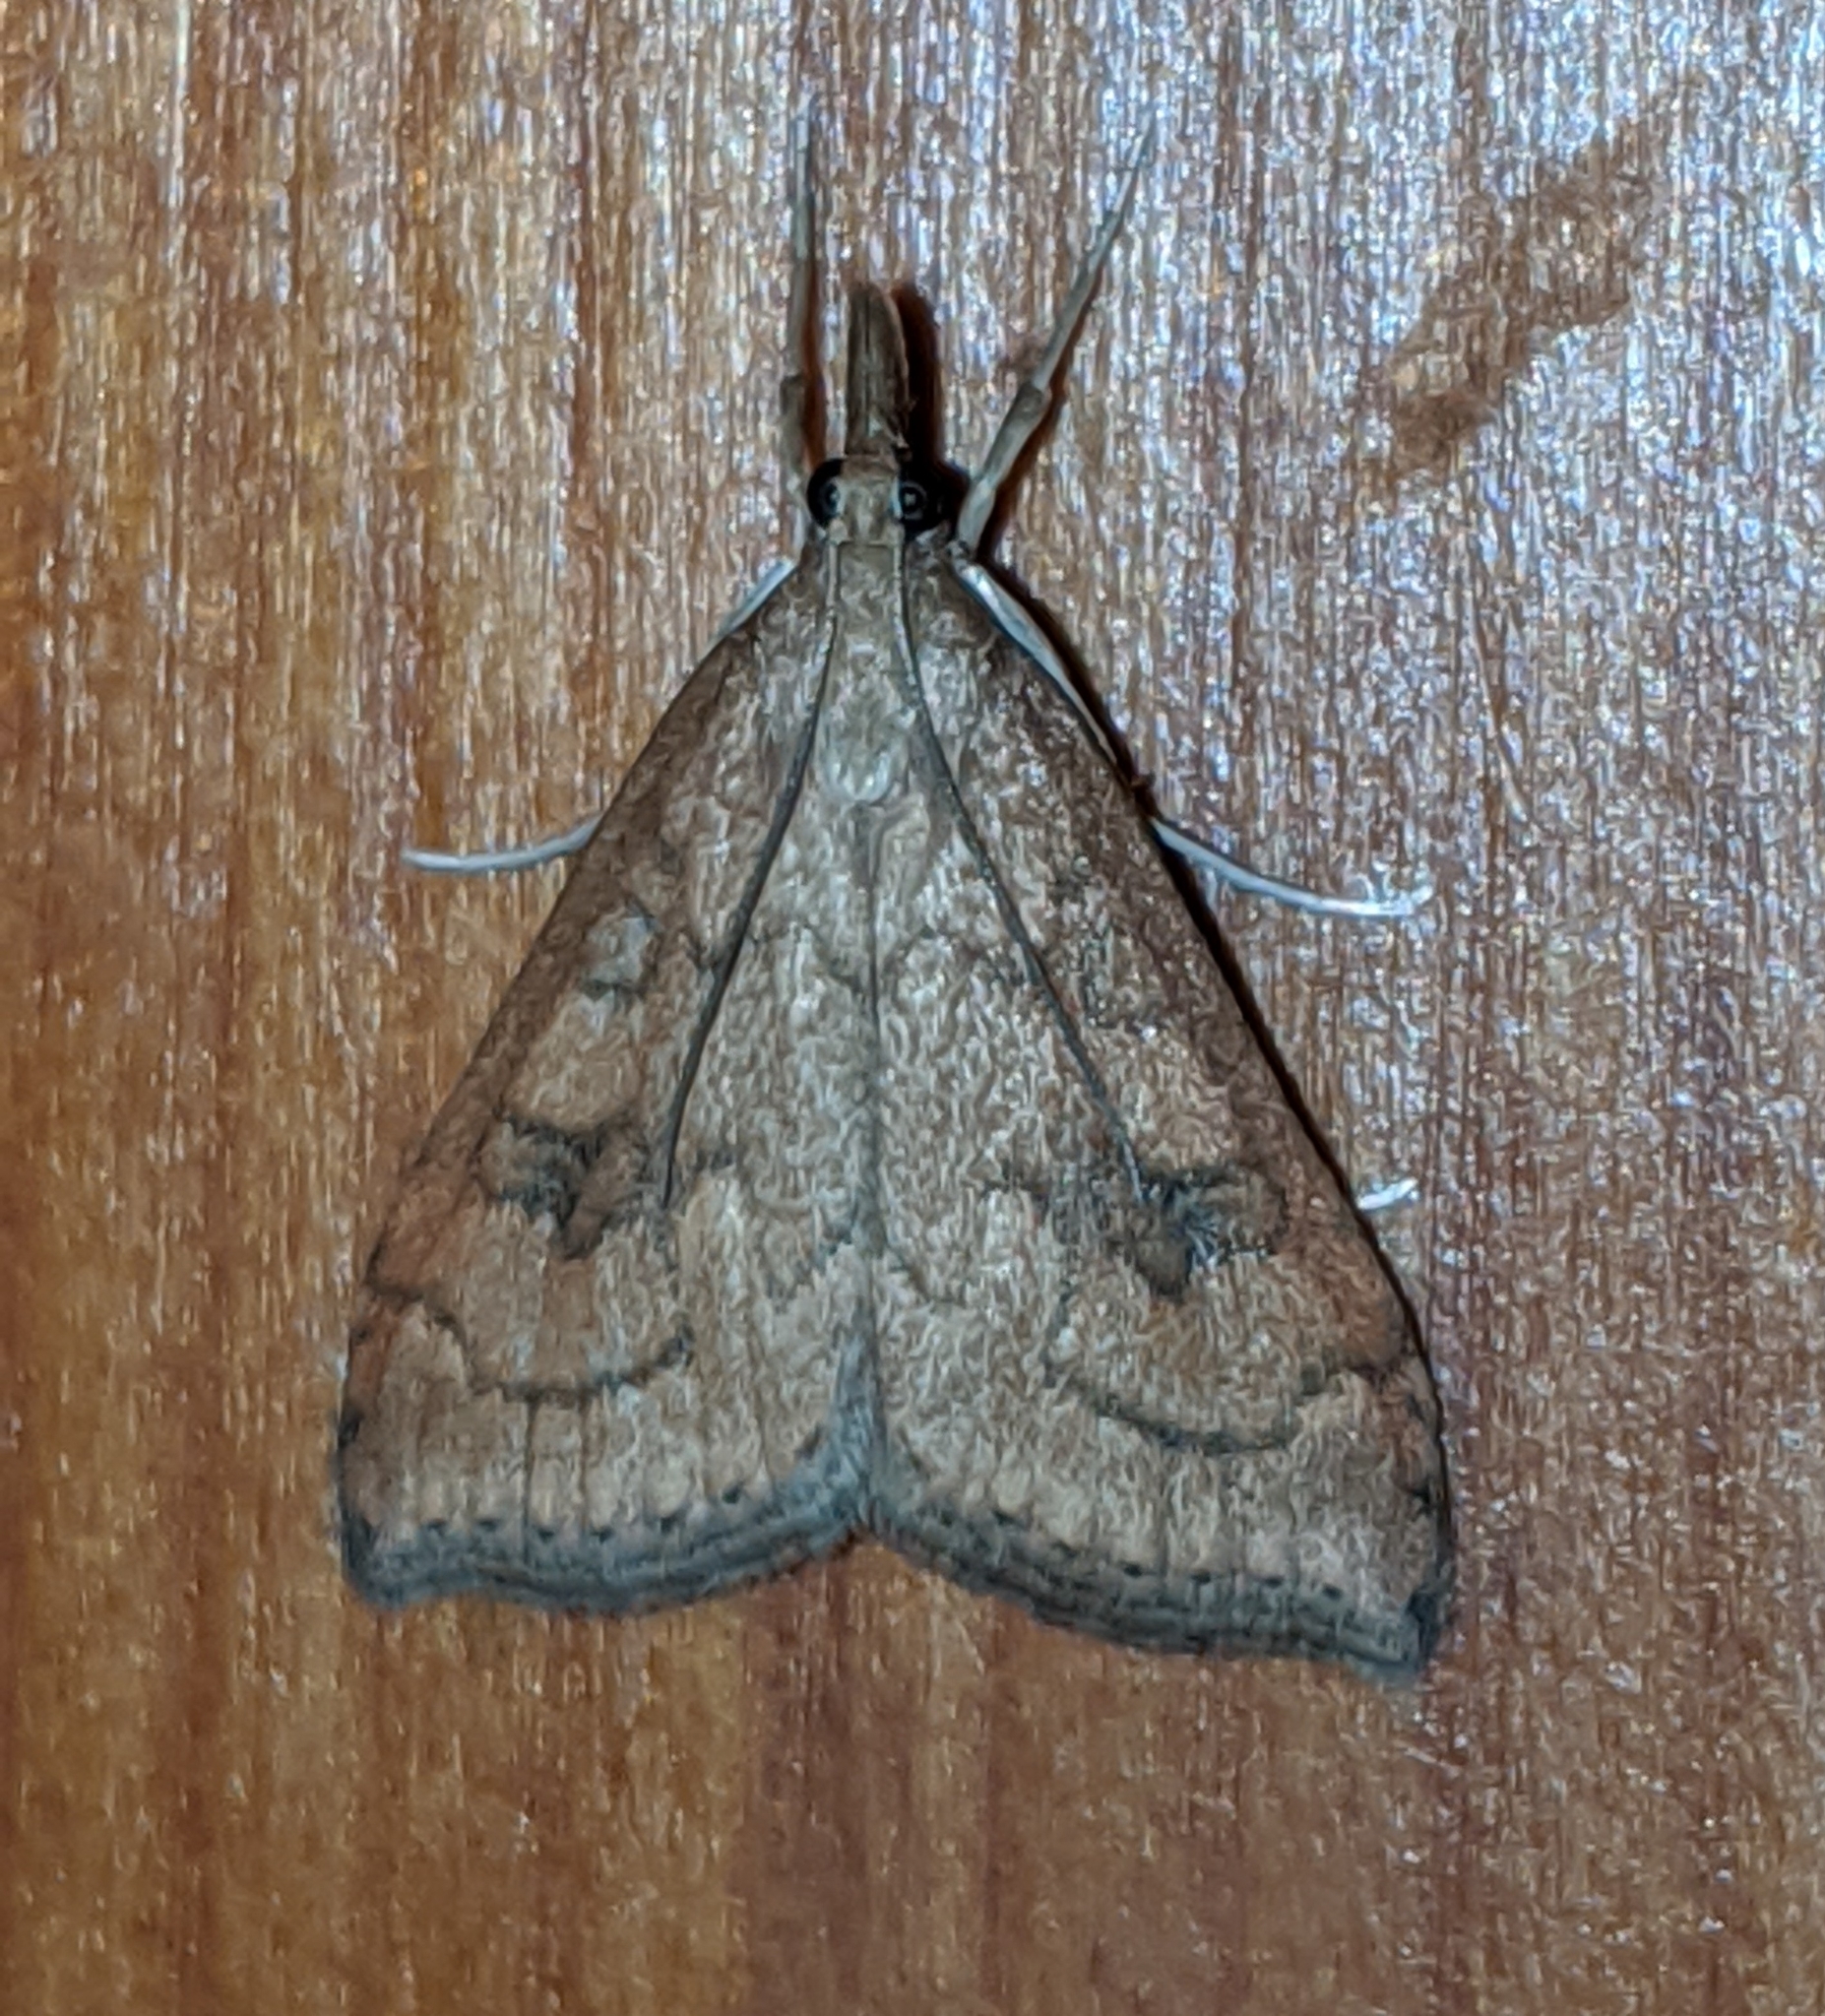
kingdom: Animalia
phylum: Arthropoda
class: Insecta
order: Lepidoptera
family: Crambidae
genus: Udea
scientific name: Udea profundalis
